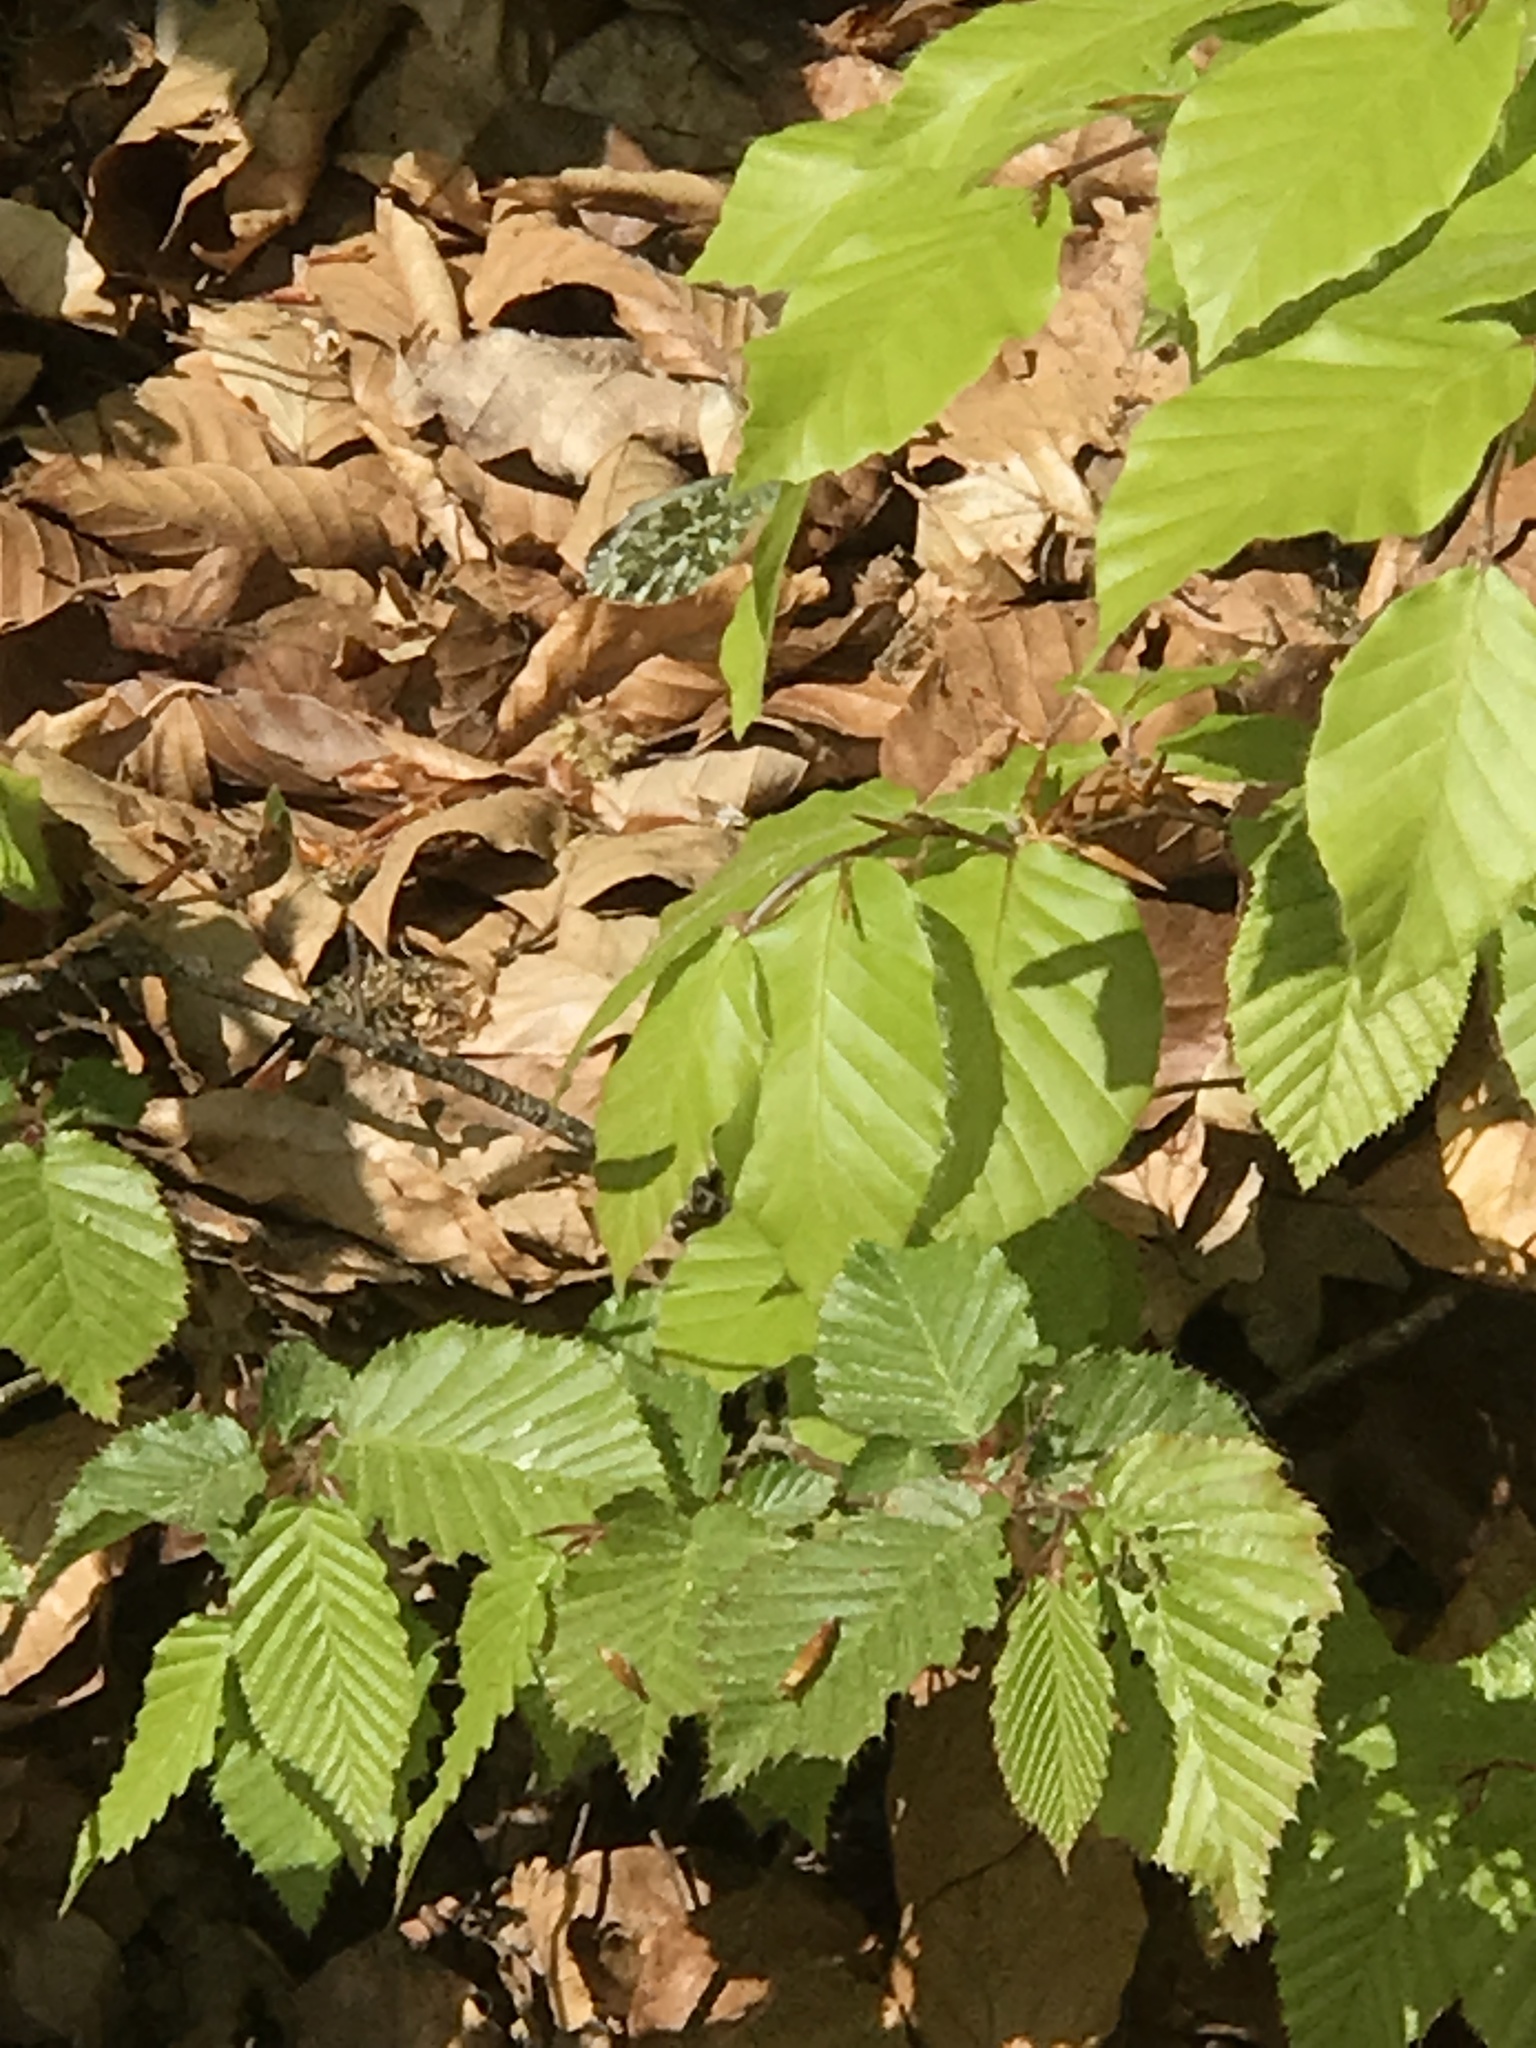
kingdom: Animalia
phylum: Arthropoda
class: Insecta
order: Lepidoptera
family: Pieridae
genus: Anthocharis
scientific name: Anthocharis cardamines
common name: Orange-tip
